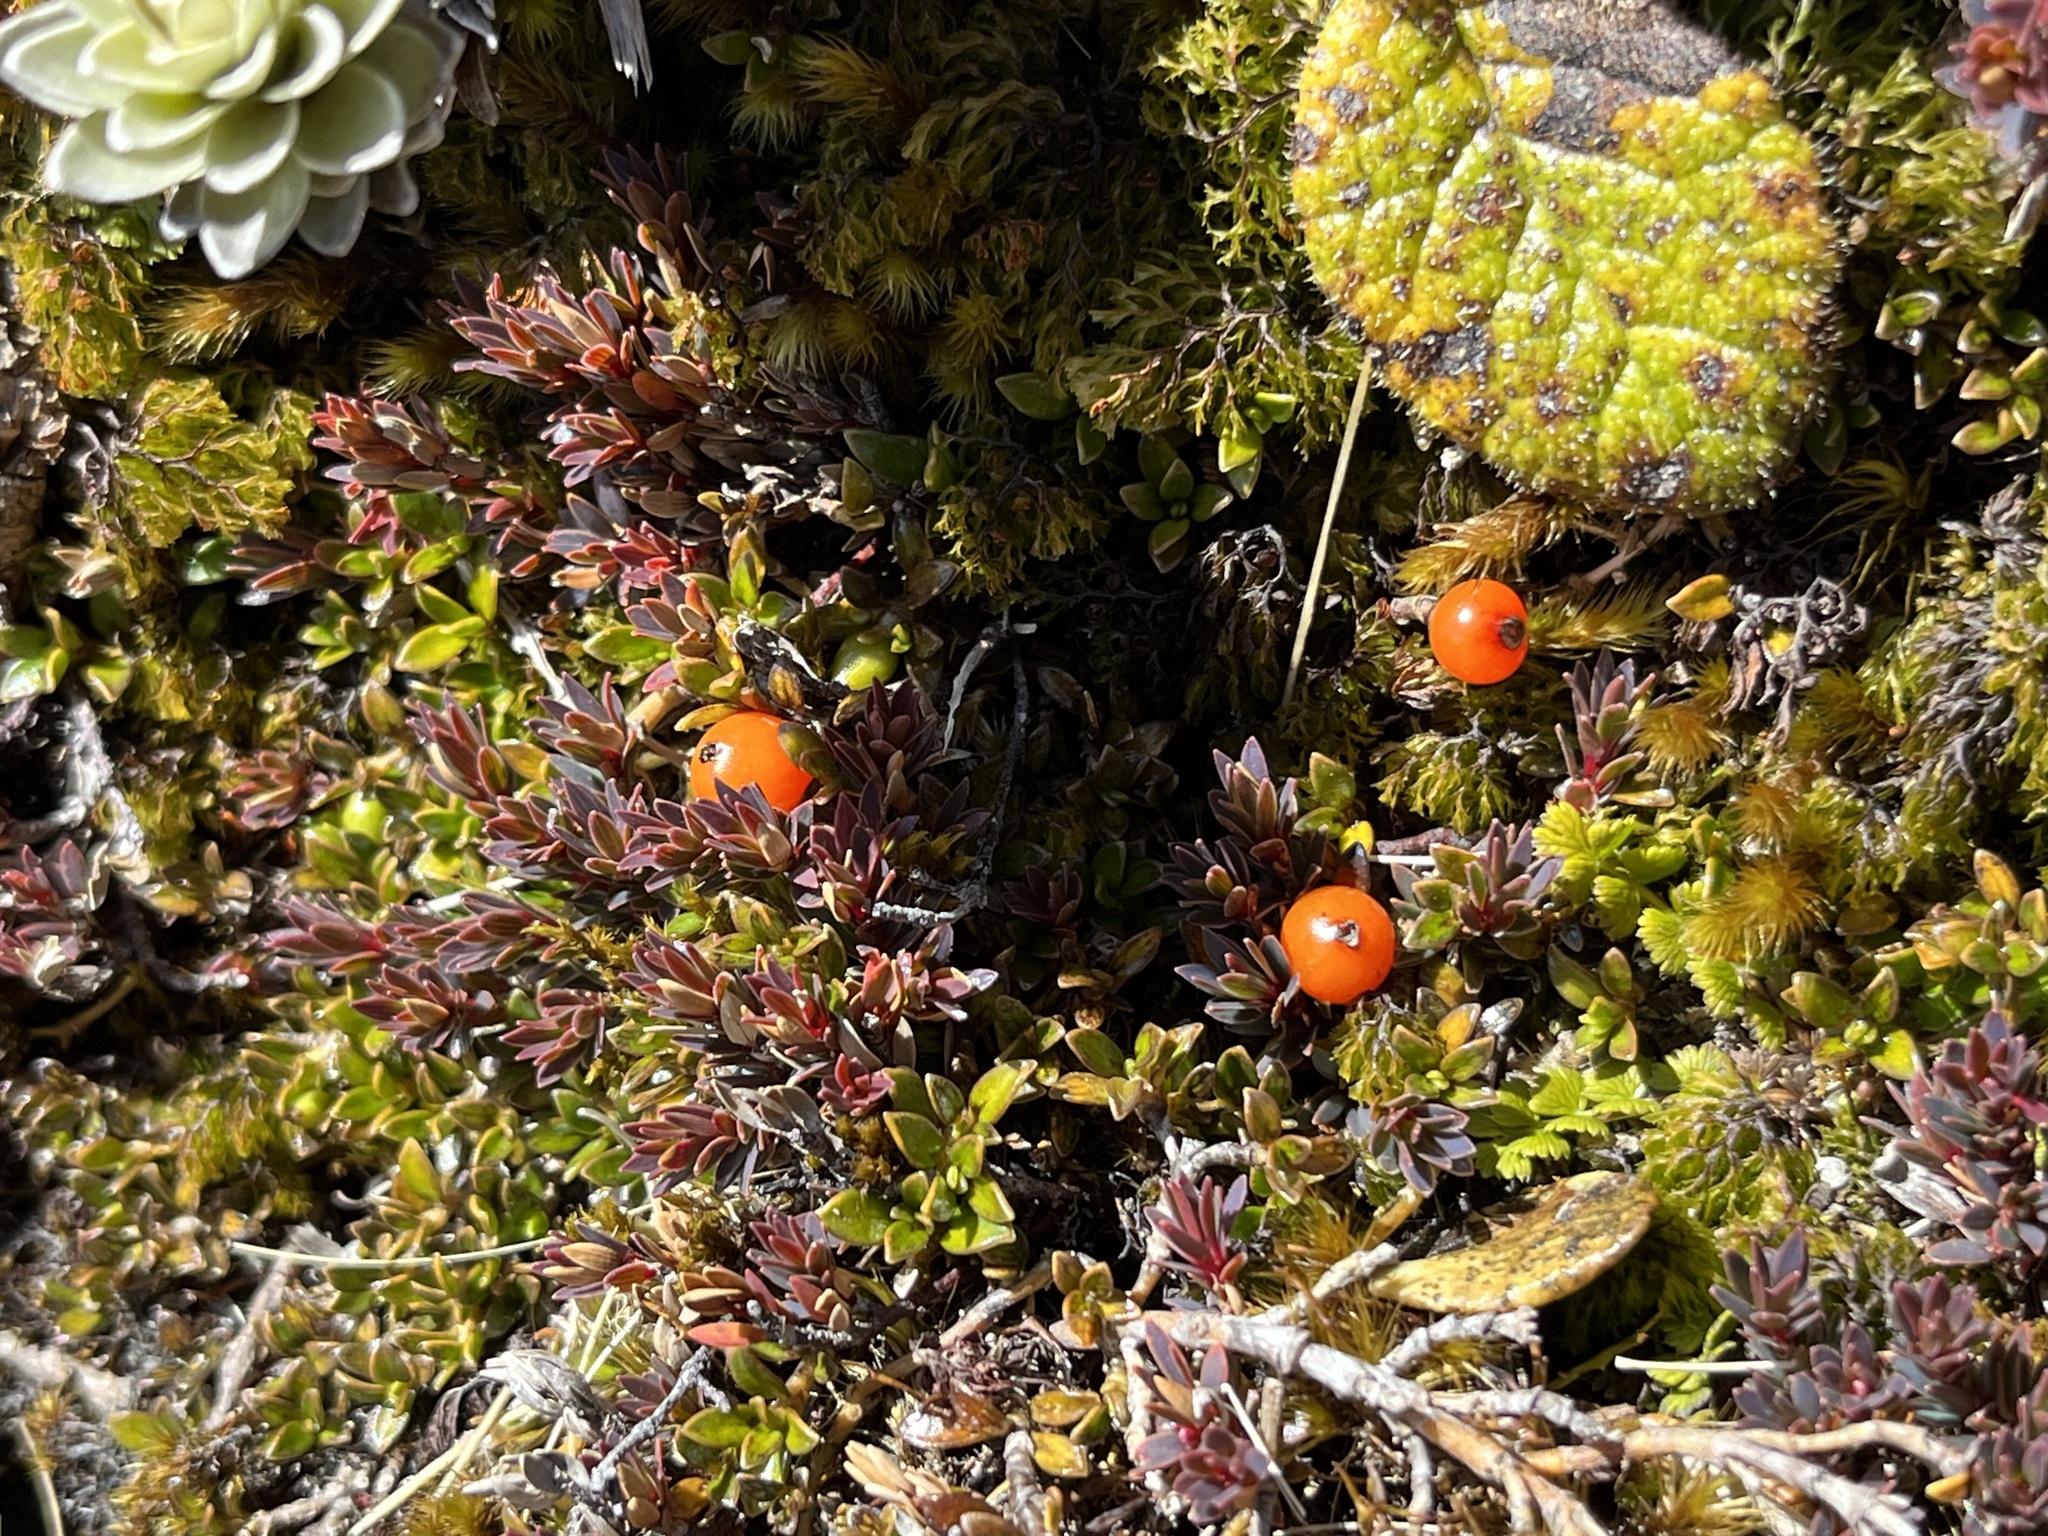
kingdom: Plantae
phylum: Tracheophyta
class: Magnoliopsida
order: Gentianales
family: Rubiaceae
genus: Coprosma
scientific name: Coprosma perpusilla
